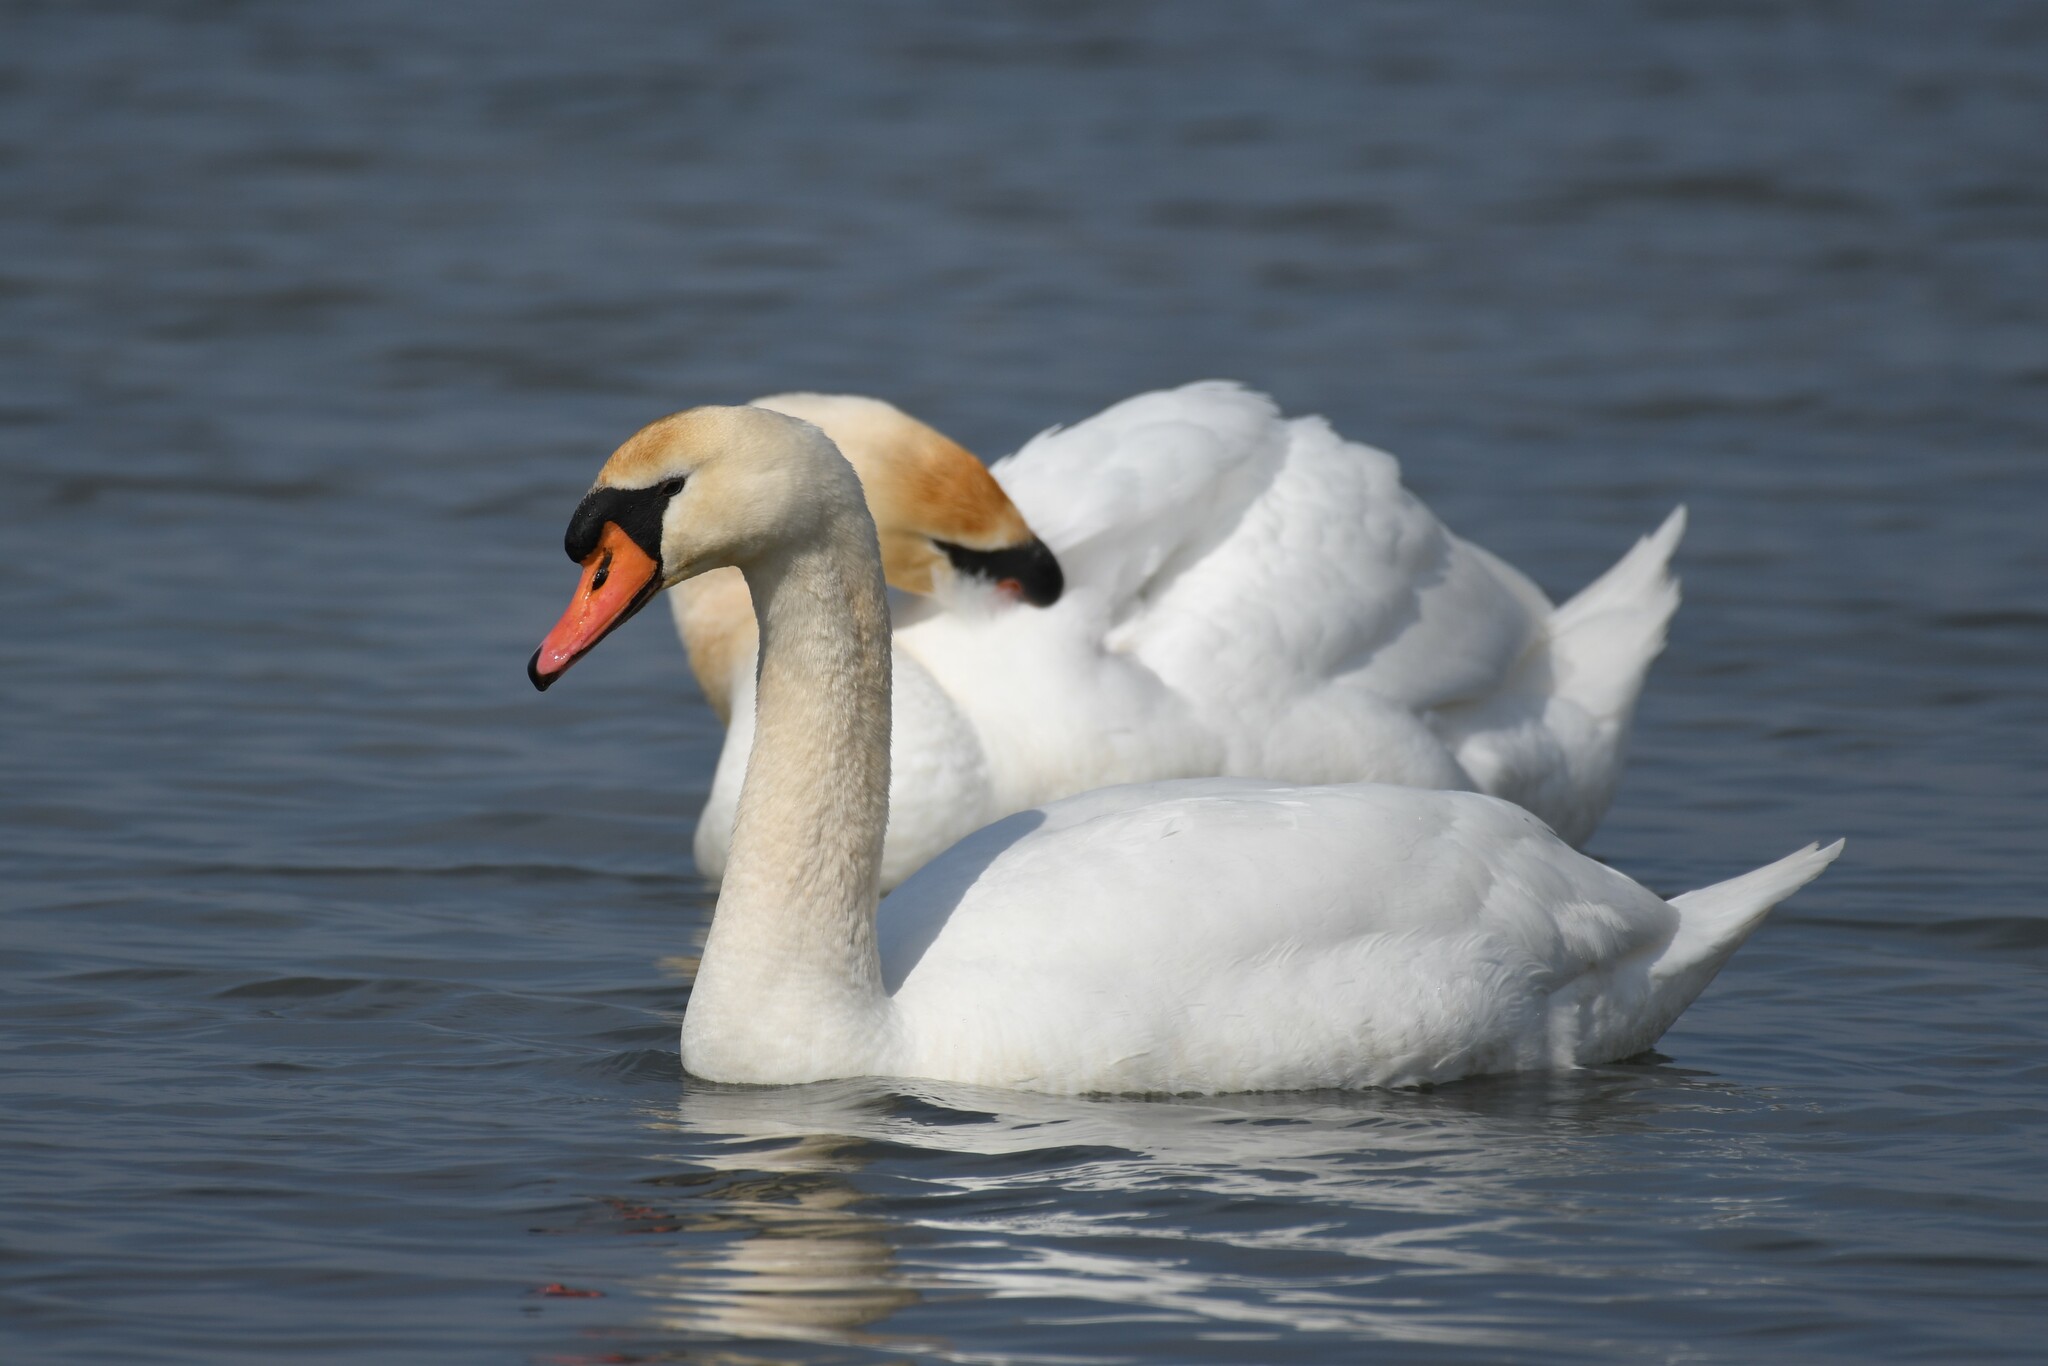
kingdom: Animalia
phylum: Chordata
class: Aves
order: Anseriformes
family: Anatidae
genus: Cygnus
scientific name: Cygnus olor
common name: Mute swan
